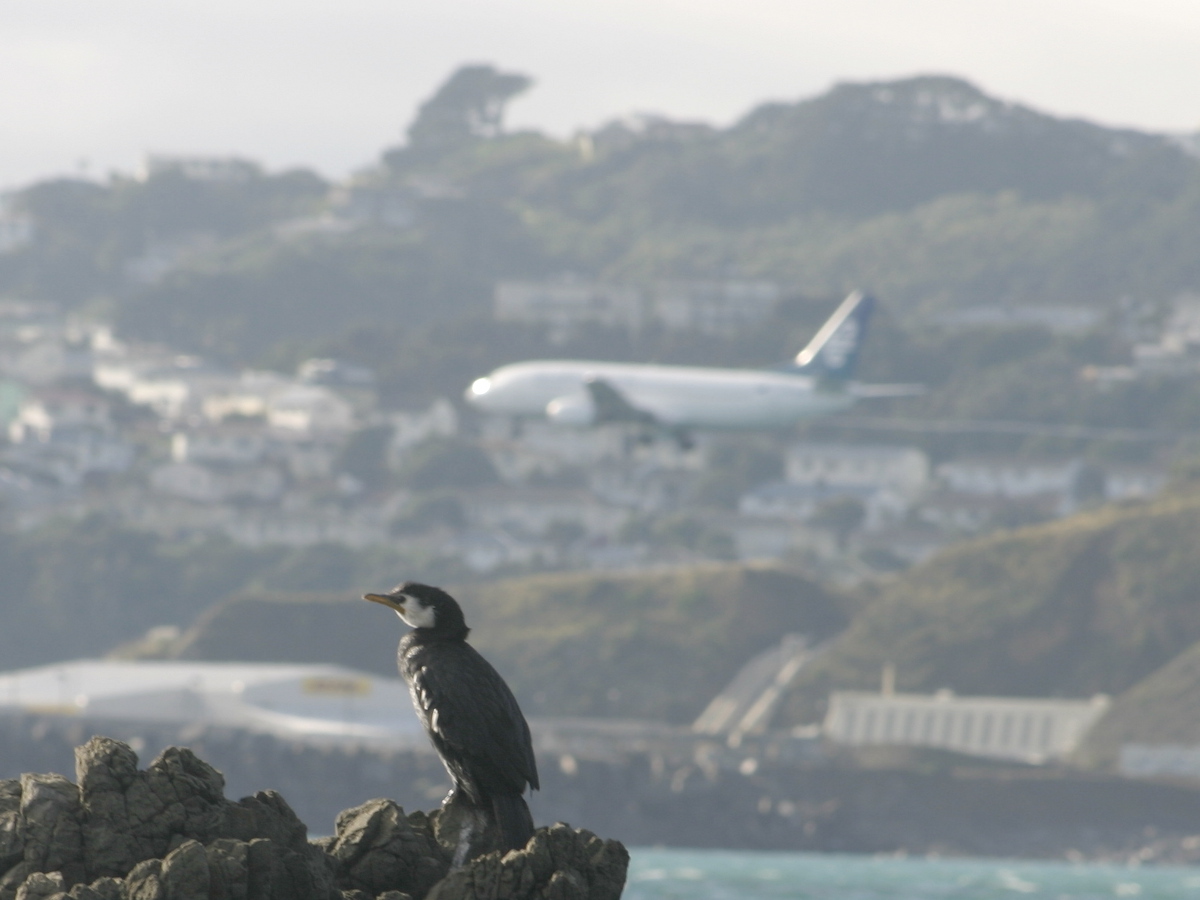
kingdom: Animalia
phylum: Chordata
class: Aves
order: Suliformes
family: Phalacrocoracidae
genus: Microcarbo
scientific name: Microcarbo melanoleucos
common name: Little pied cormorant
